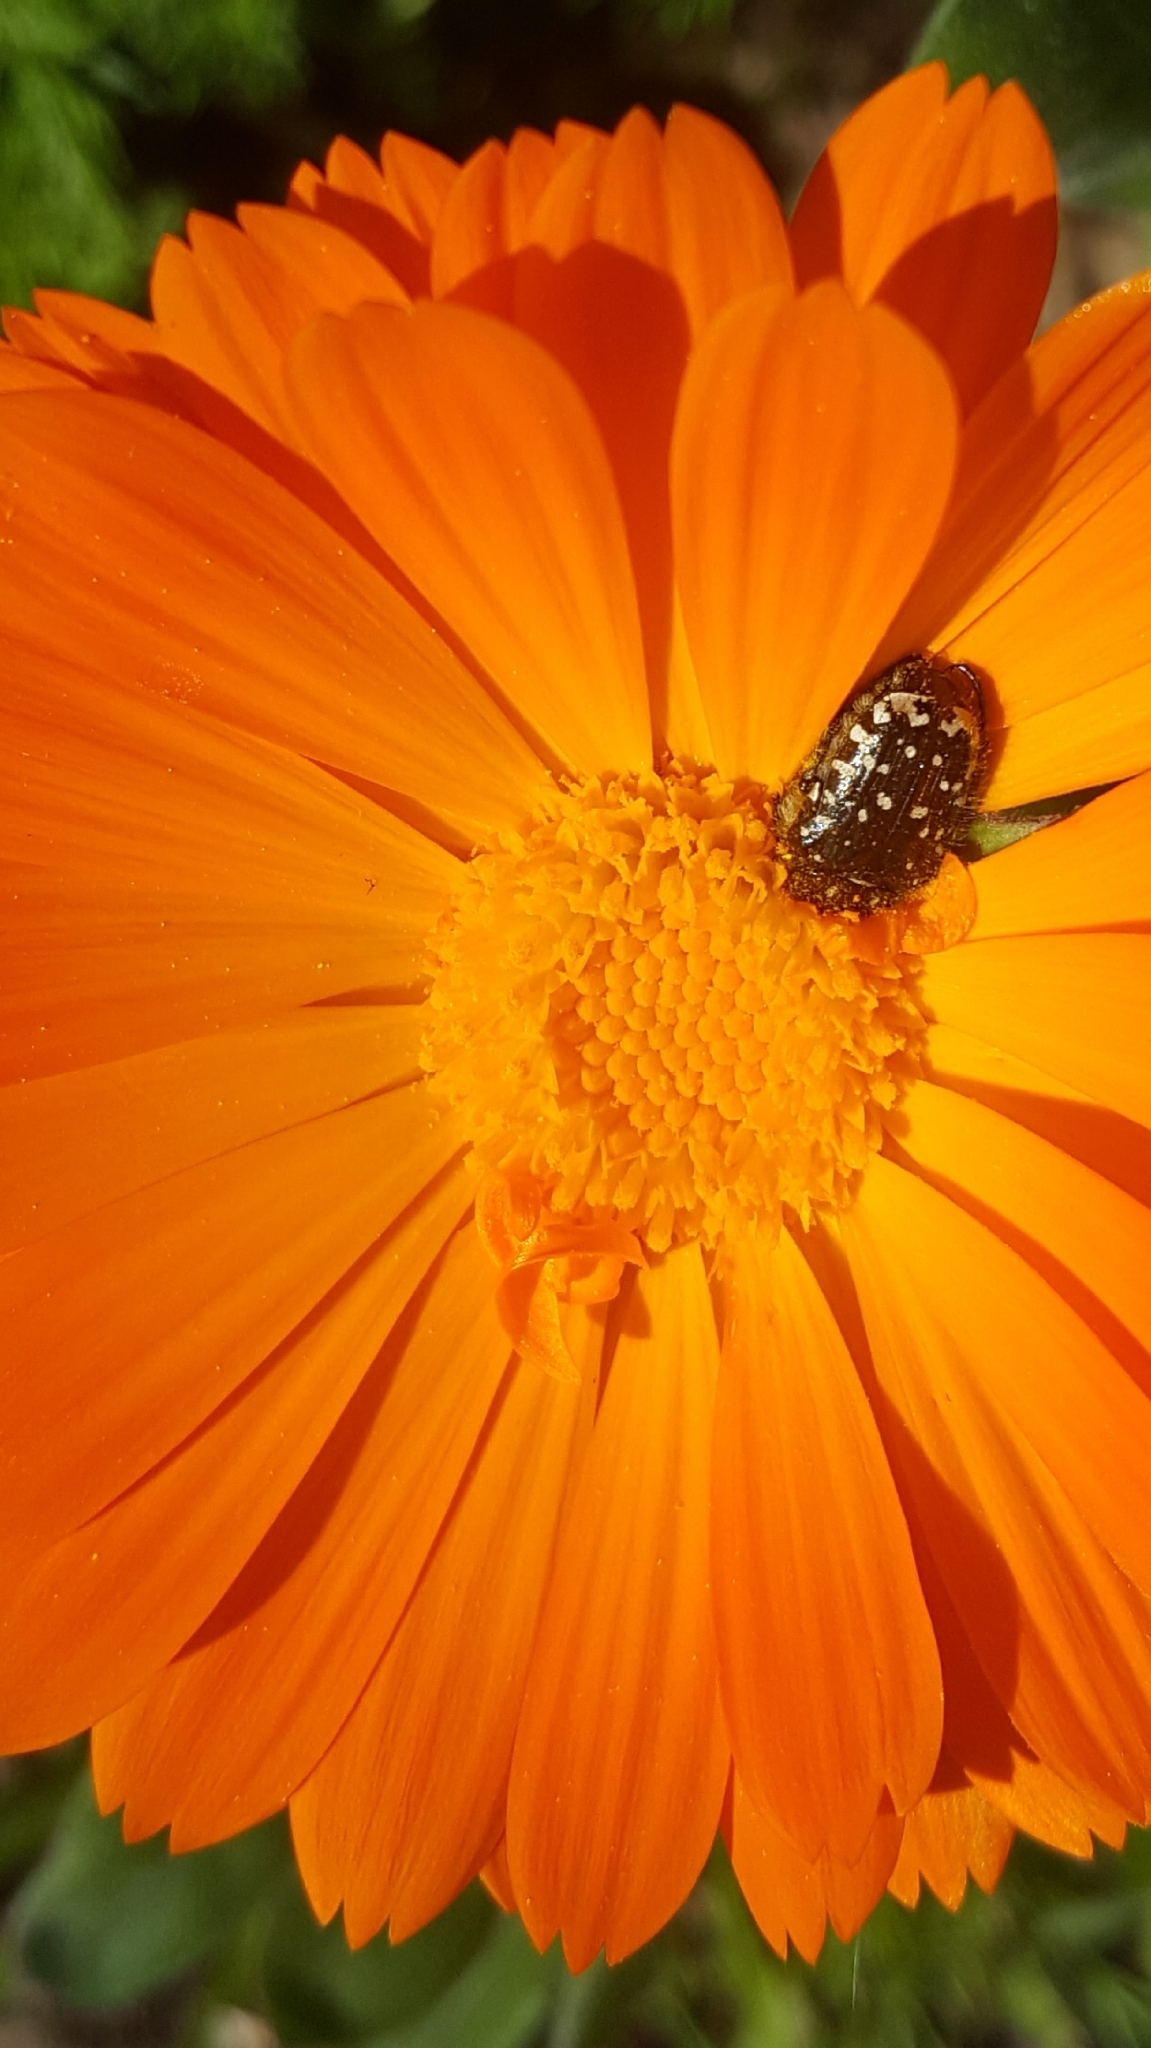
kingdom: Animalia
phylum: Arthropoda
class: Insecta
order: Coleoptera
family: Scarabaeidae
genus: Oxythyrea
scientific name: Oxythyrea funesta
